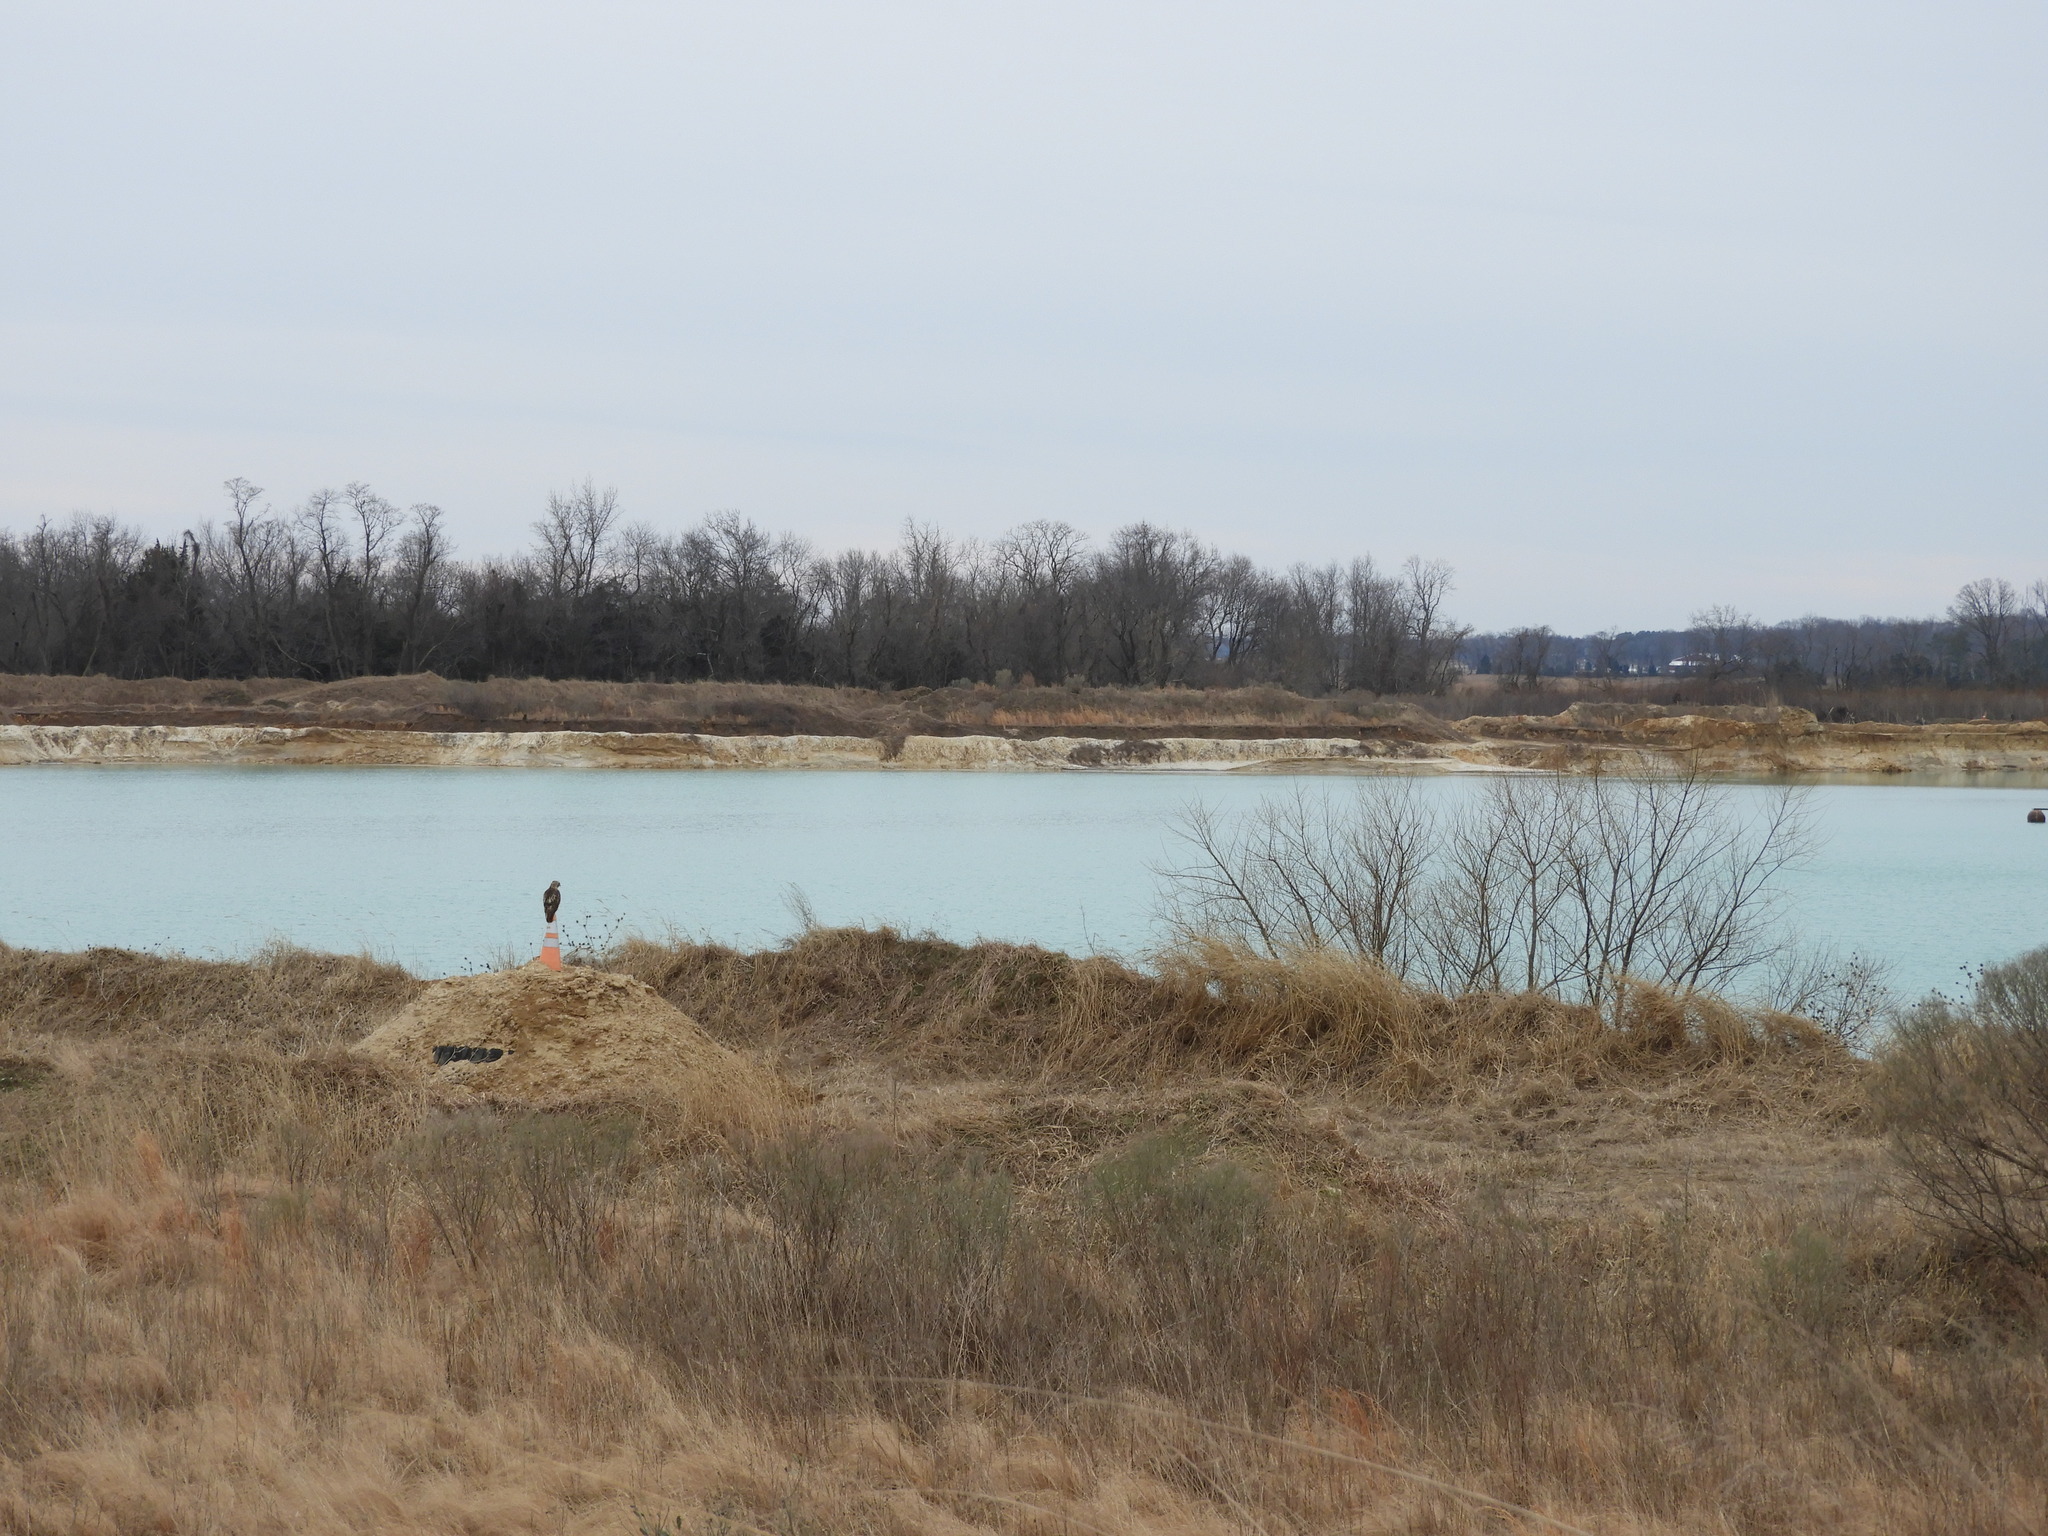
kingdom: Animalia
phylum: Chordata
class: Aves
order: Accipitriformes
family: Accipitridae
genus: Buteo
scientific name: Buteo jamaicensis
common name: Red-tailed hawk
